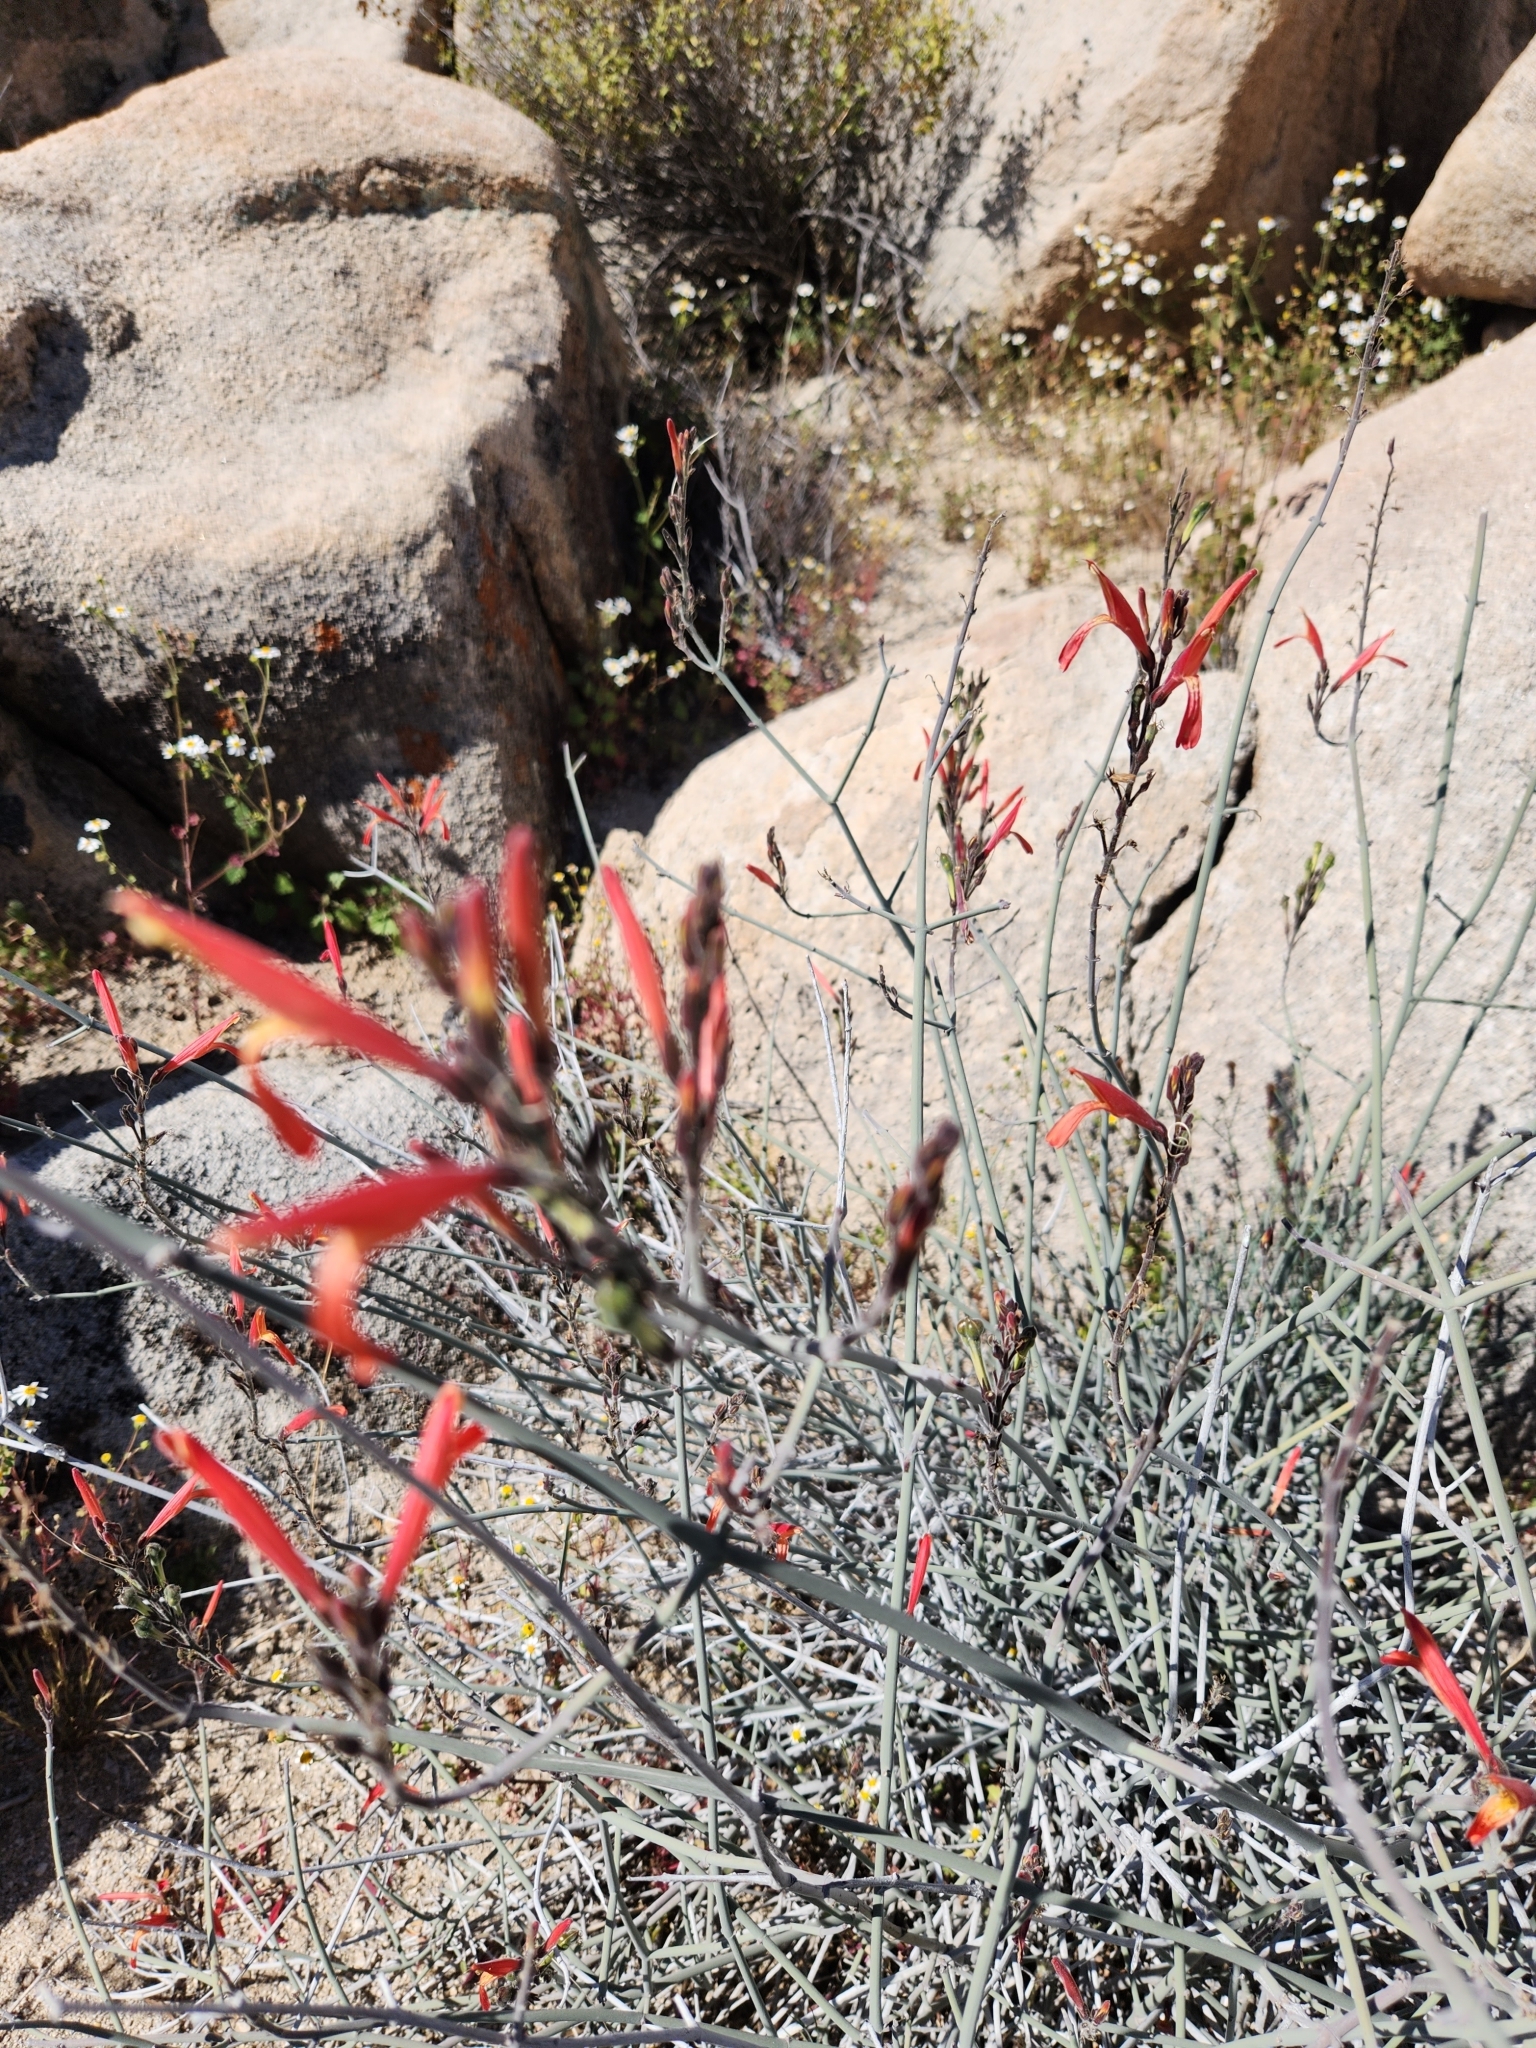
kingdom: Plantae
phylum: Tracheophyta
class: Magnoliopsida
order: Lamiales
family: Acanthaceae
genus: Justicia
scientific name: Justicia californica
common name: Chuparosa-honeysuckle
